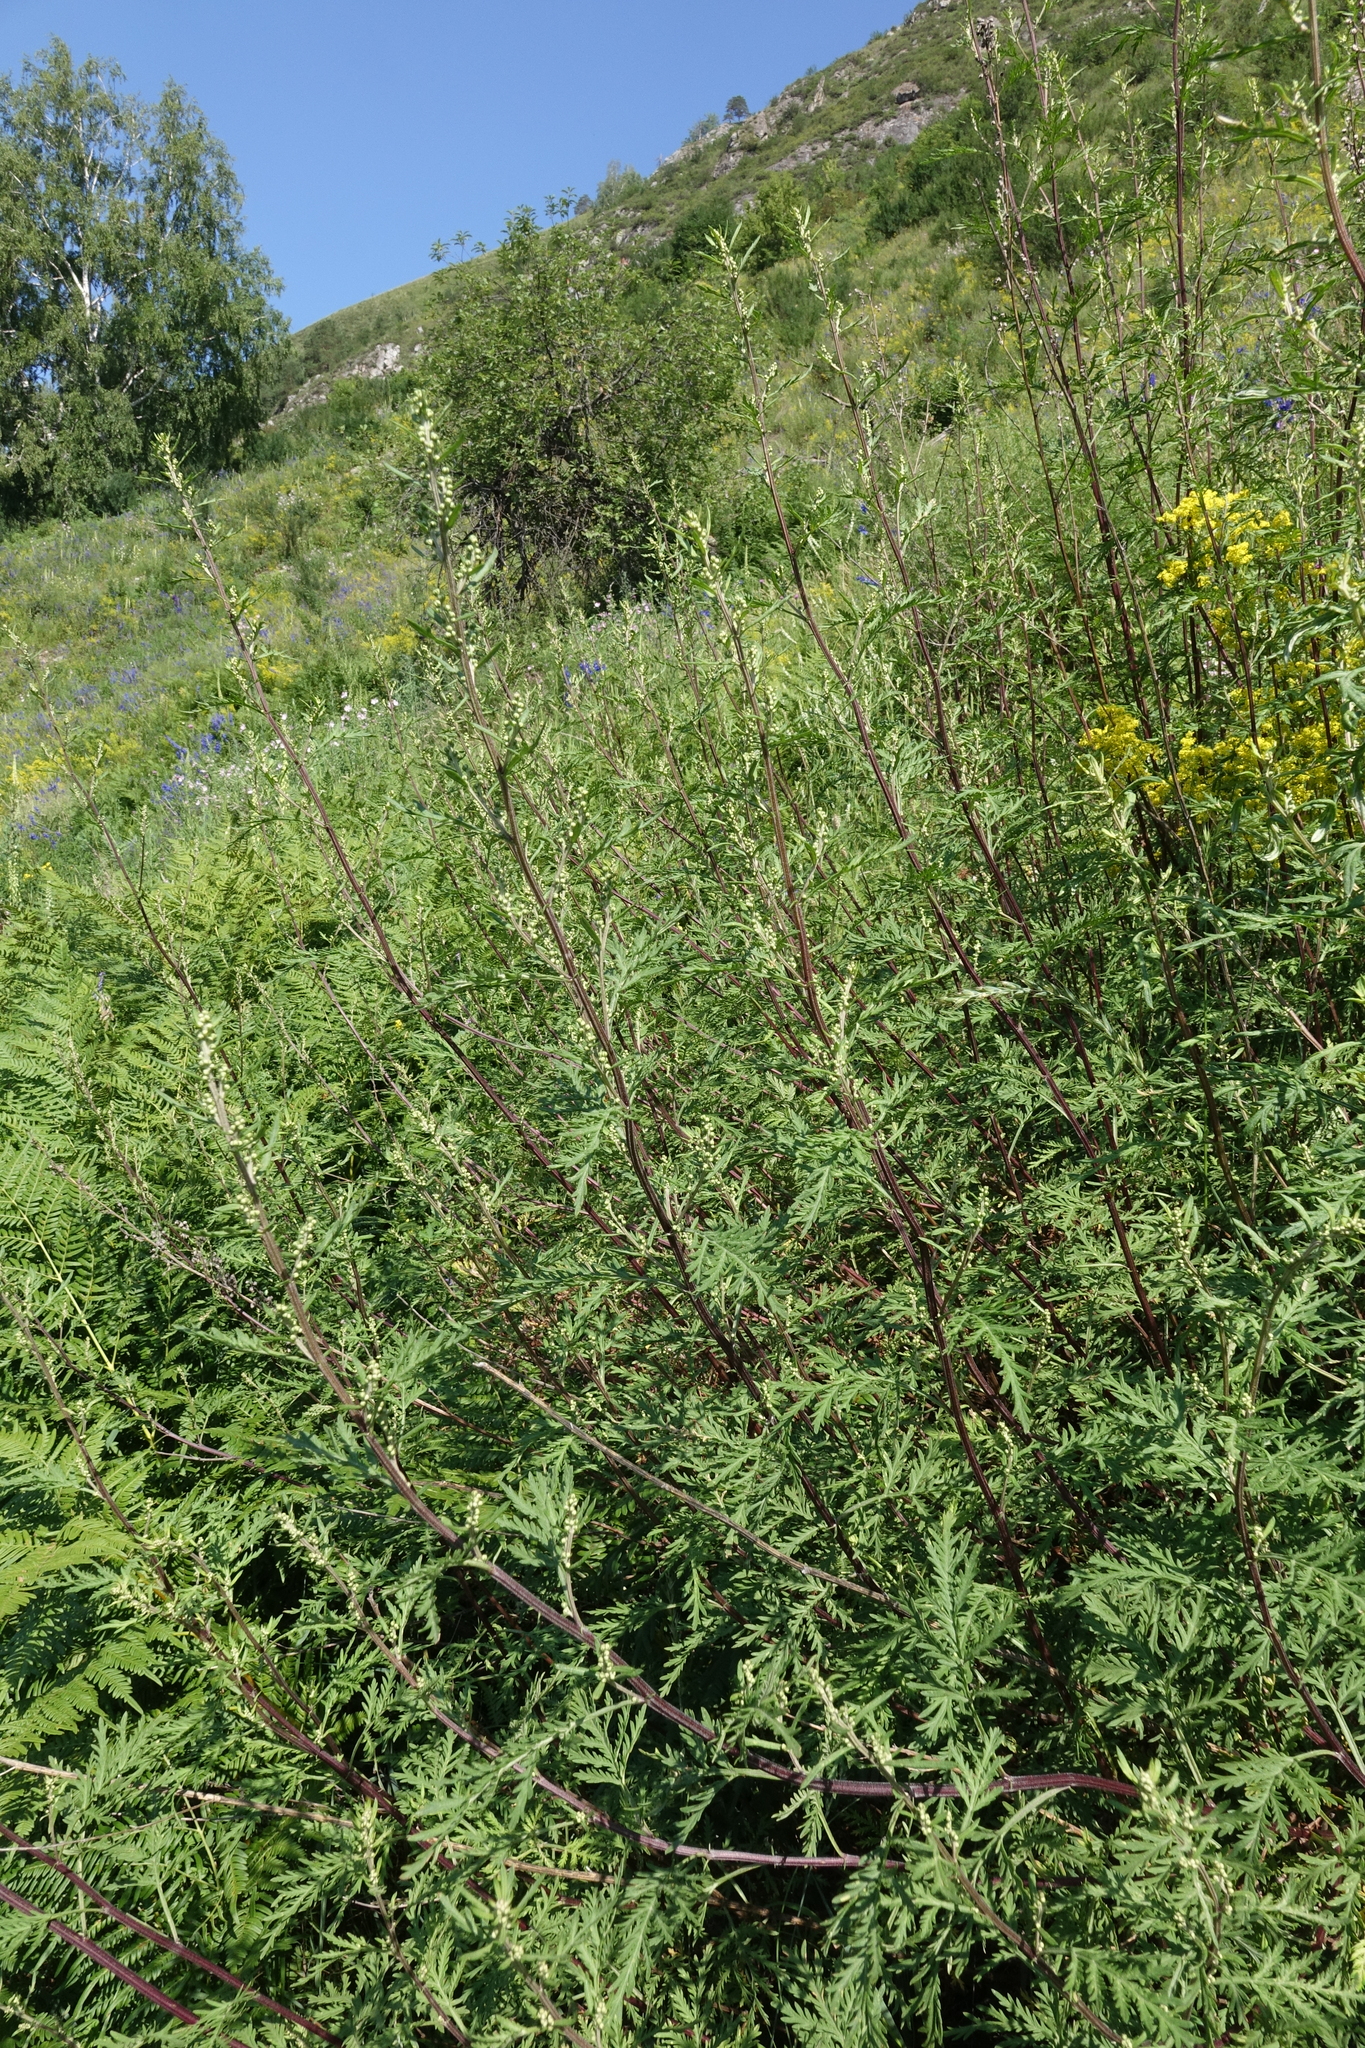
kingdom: Plantae
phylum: Tracheophyta
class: Magnoliopsida
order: Asterales
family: Asteraceae
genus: Artemisia
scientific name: Artemisia gmelinii
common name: Gmelin's wormwood
